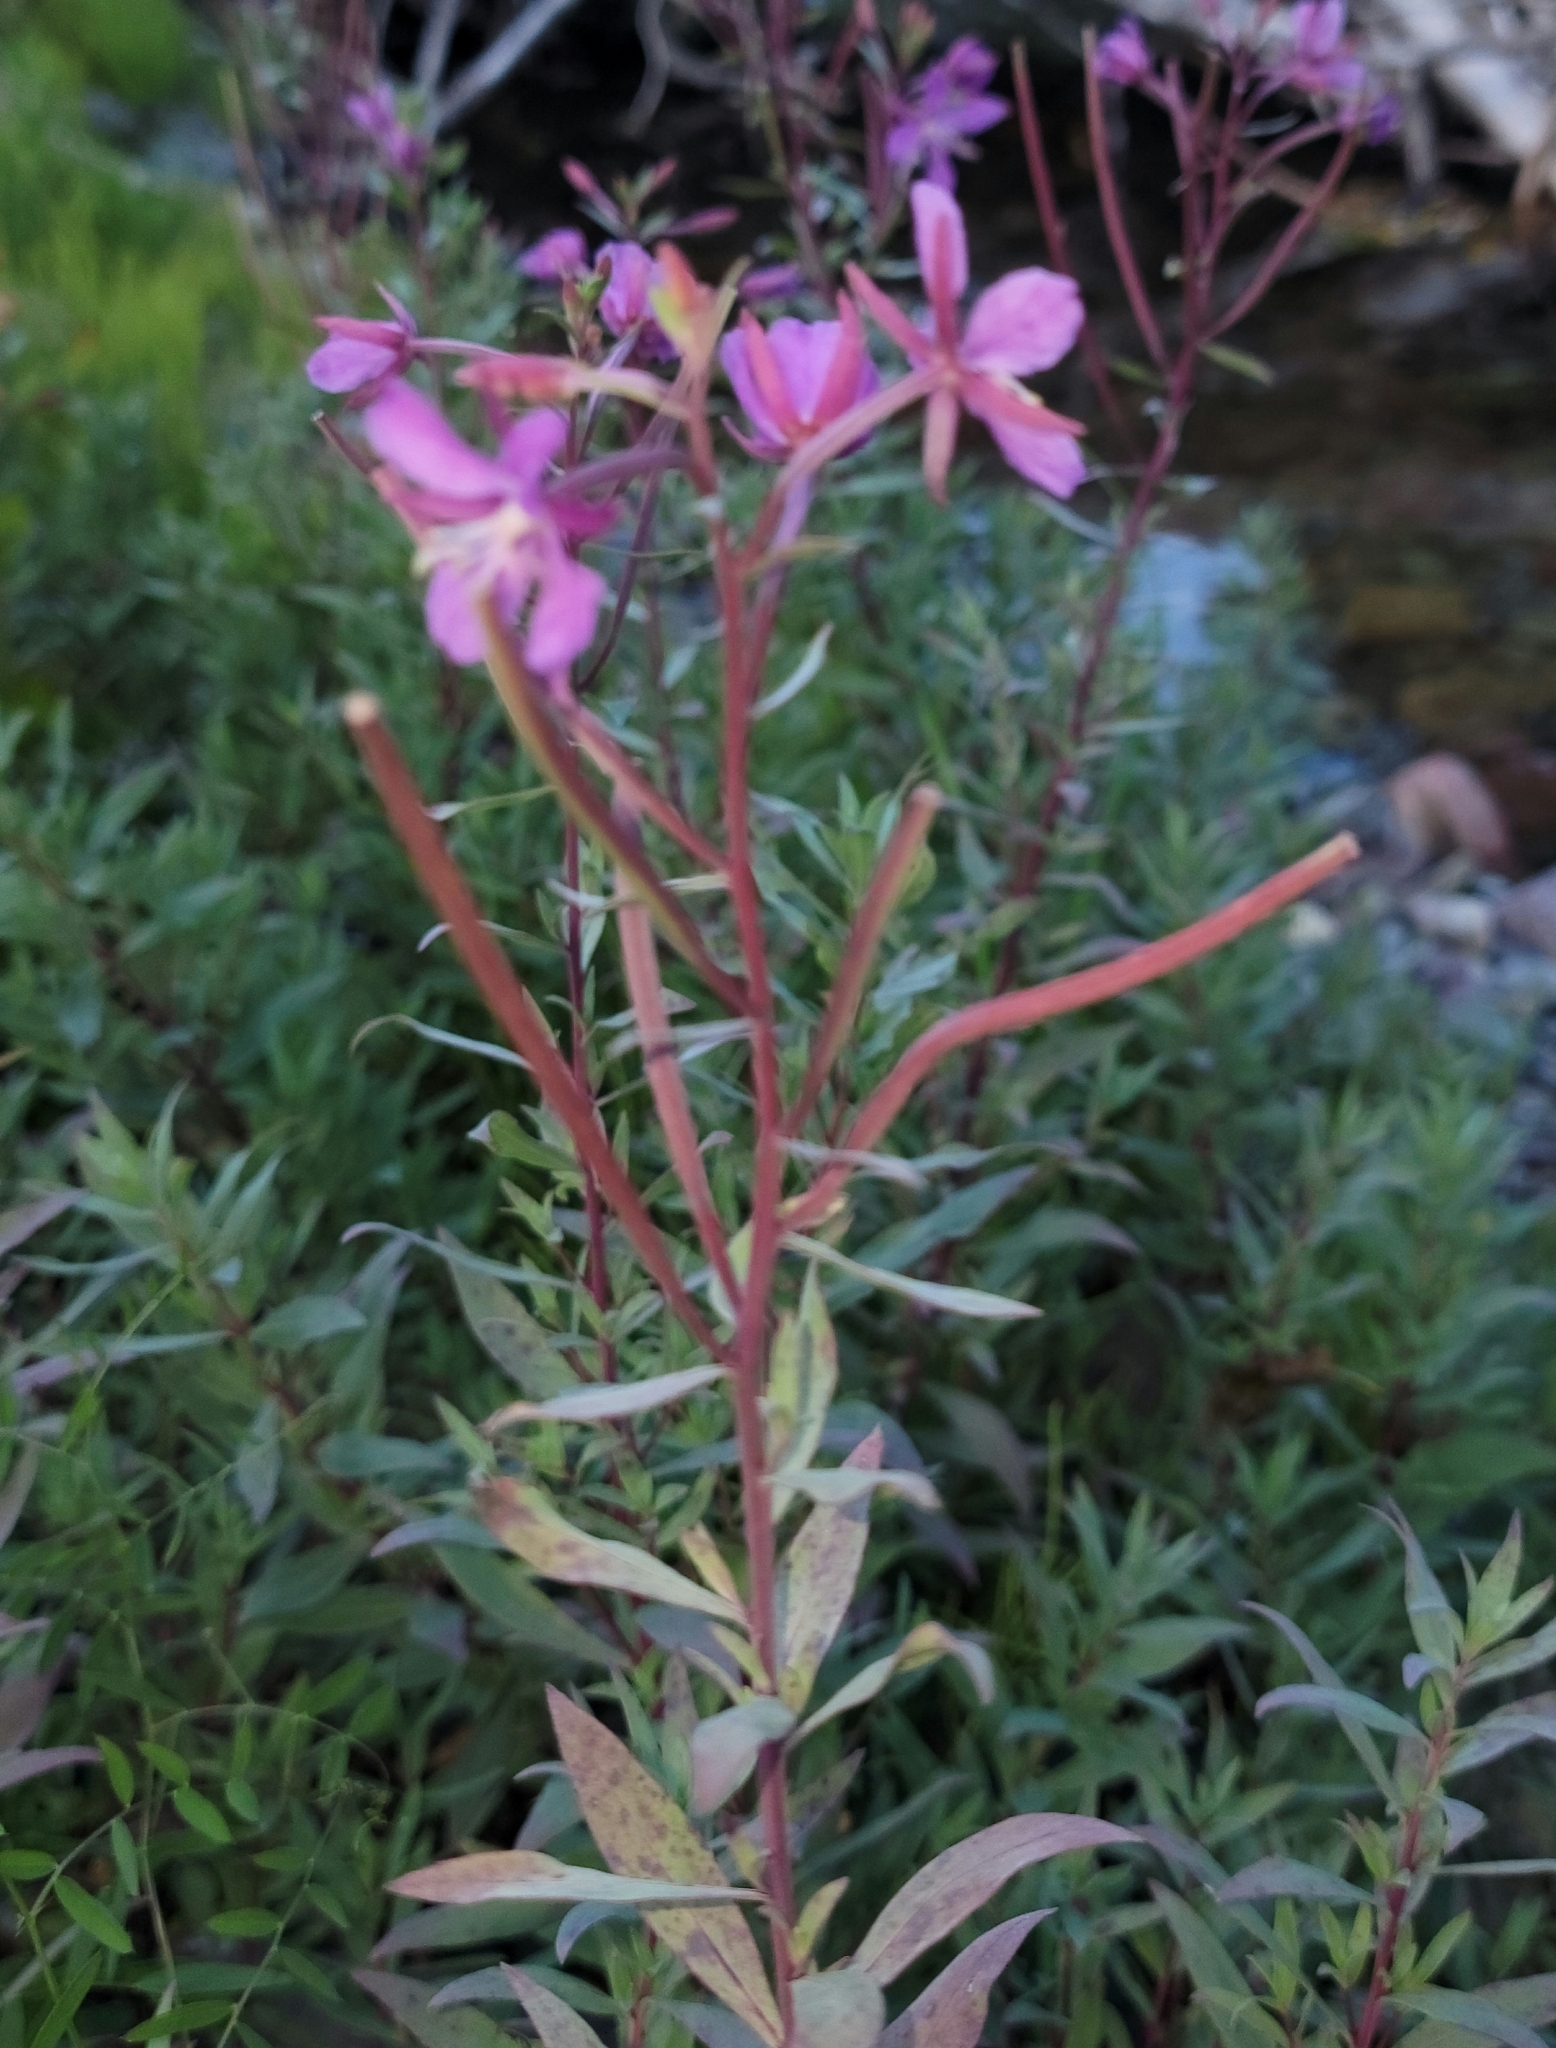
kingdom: Plantae
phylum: Tracheophyta
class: Magnoliopsida
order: Myrtales
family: Onagraceae
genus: Chamaenerion
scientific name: Chamaenerion angustifolium
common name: Fireweed
